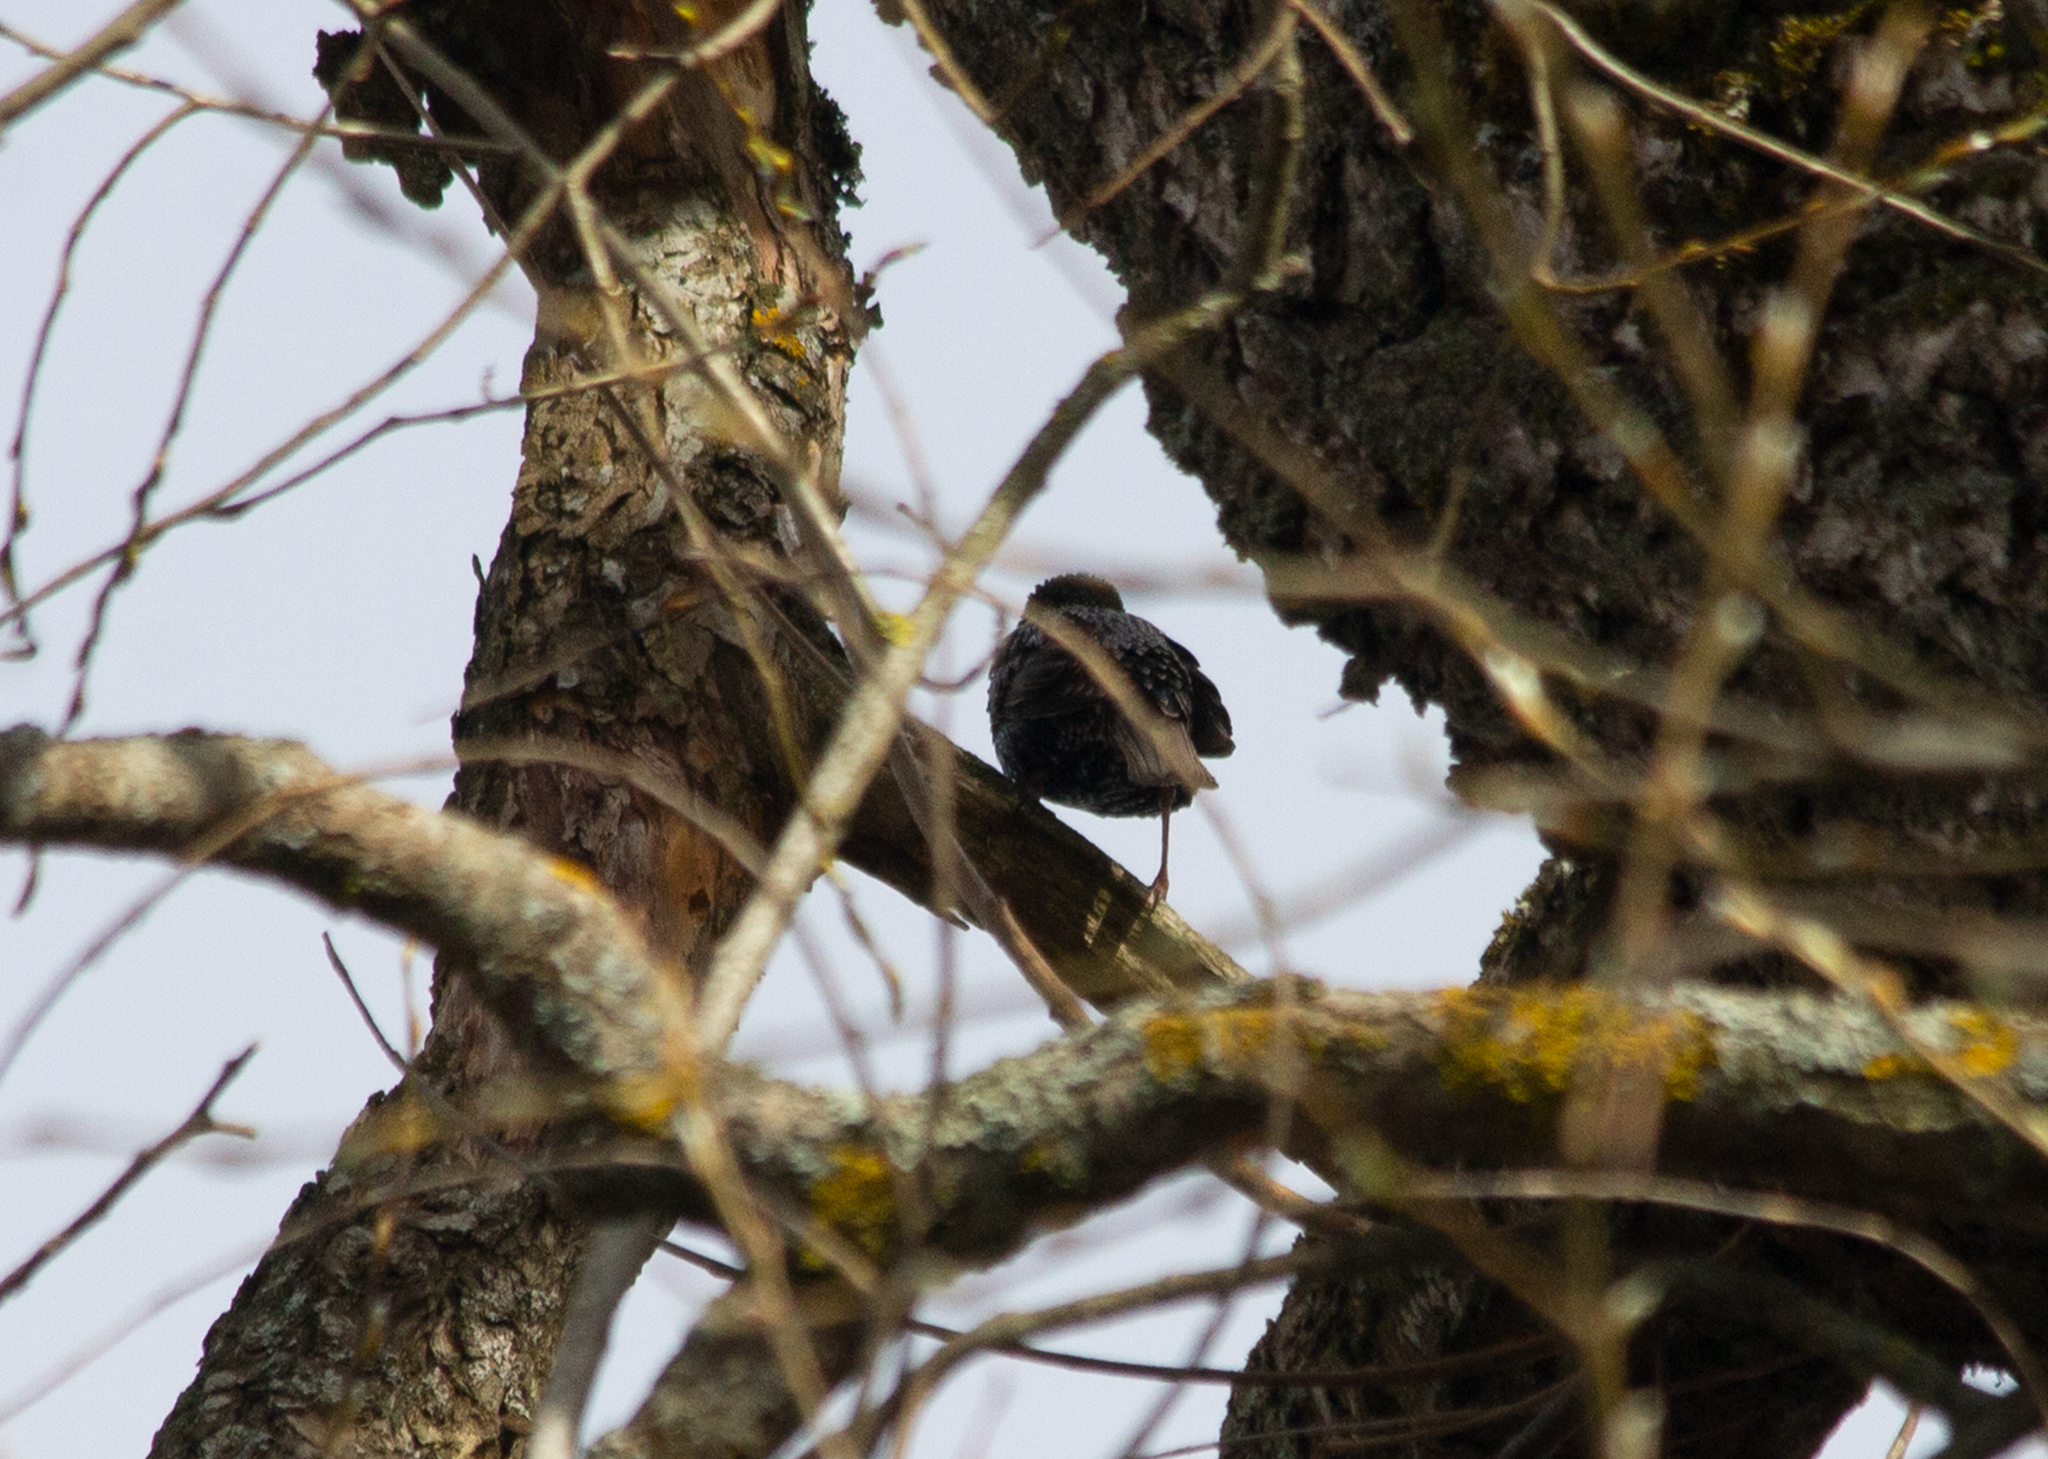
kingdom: Animalia
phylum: Chordata
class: Aves
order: Passeriformes
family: Sturnidae
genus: Sturnus
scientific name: Sturnus vulgaris
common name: Common starling
